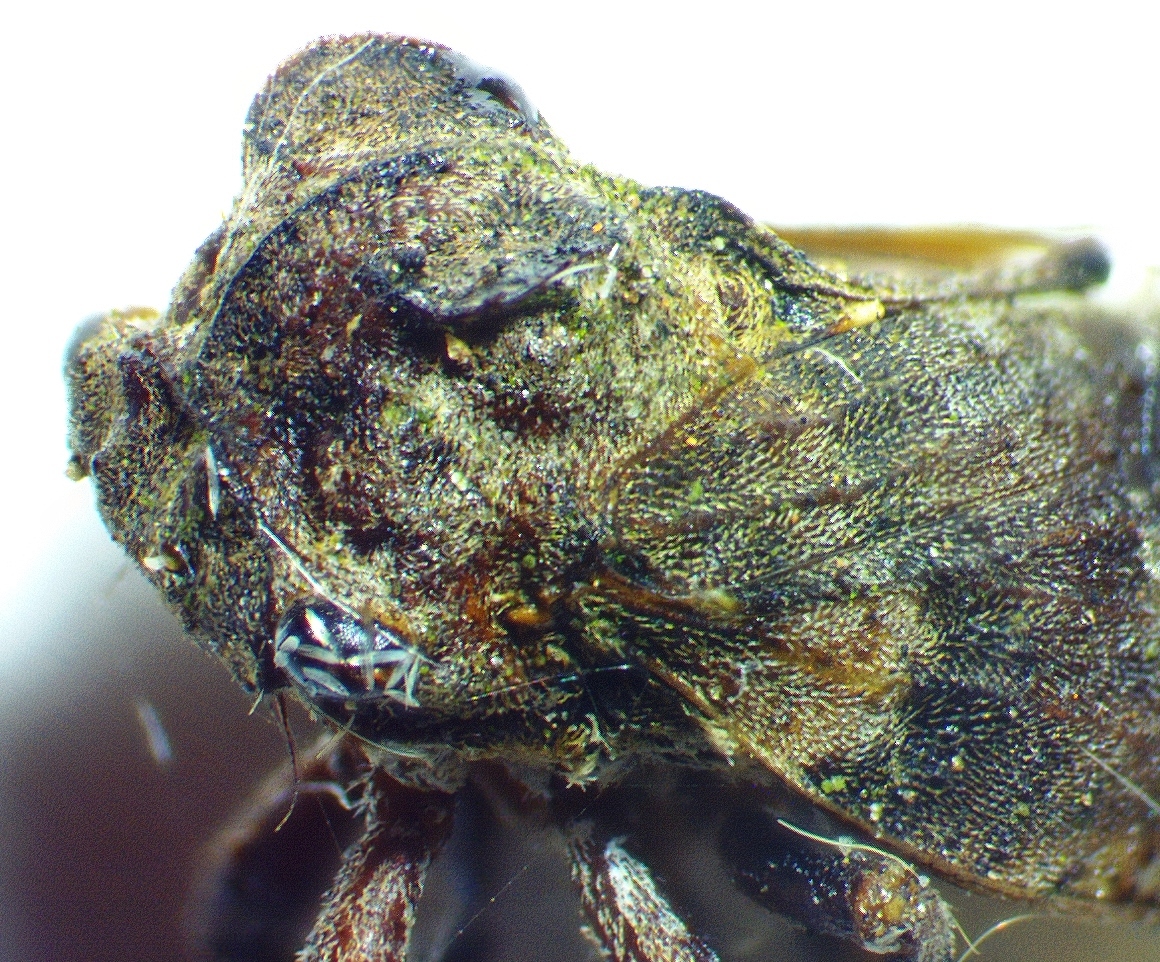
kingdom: Animalia
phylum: Arthropoda
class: Insecta
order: Hemiptera
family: Membracidae
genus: Microcentrus
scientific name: Microcentrus perdita
